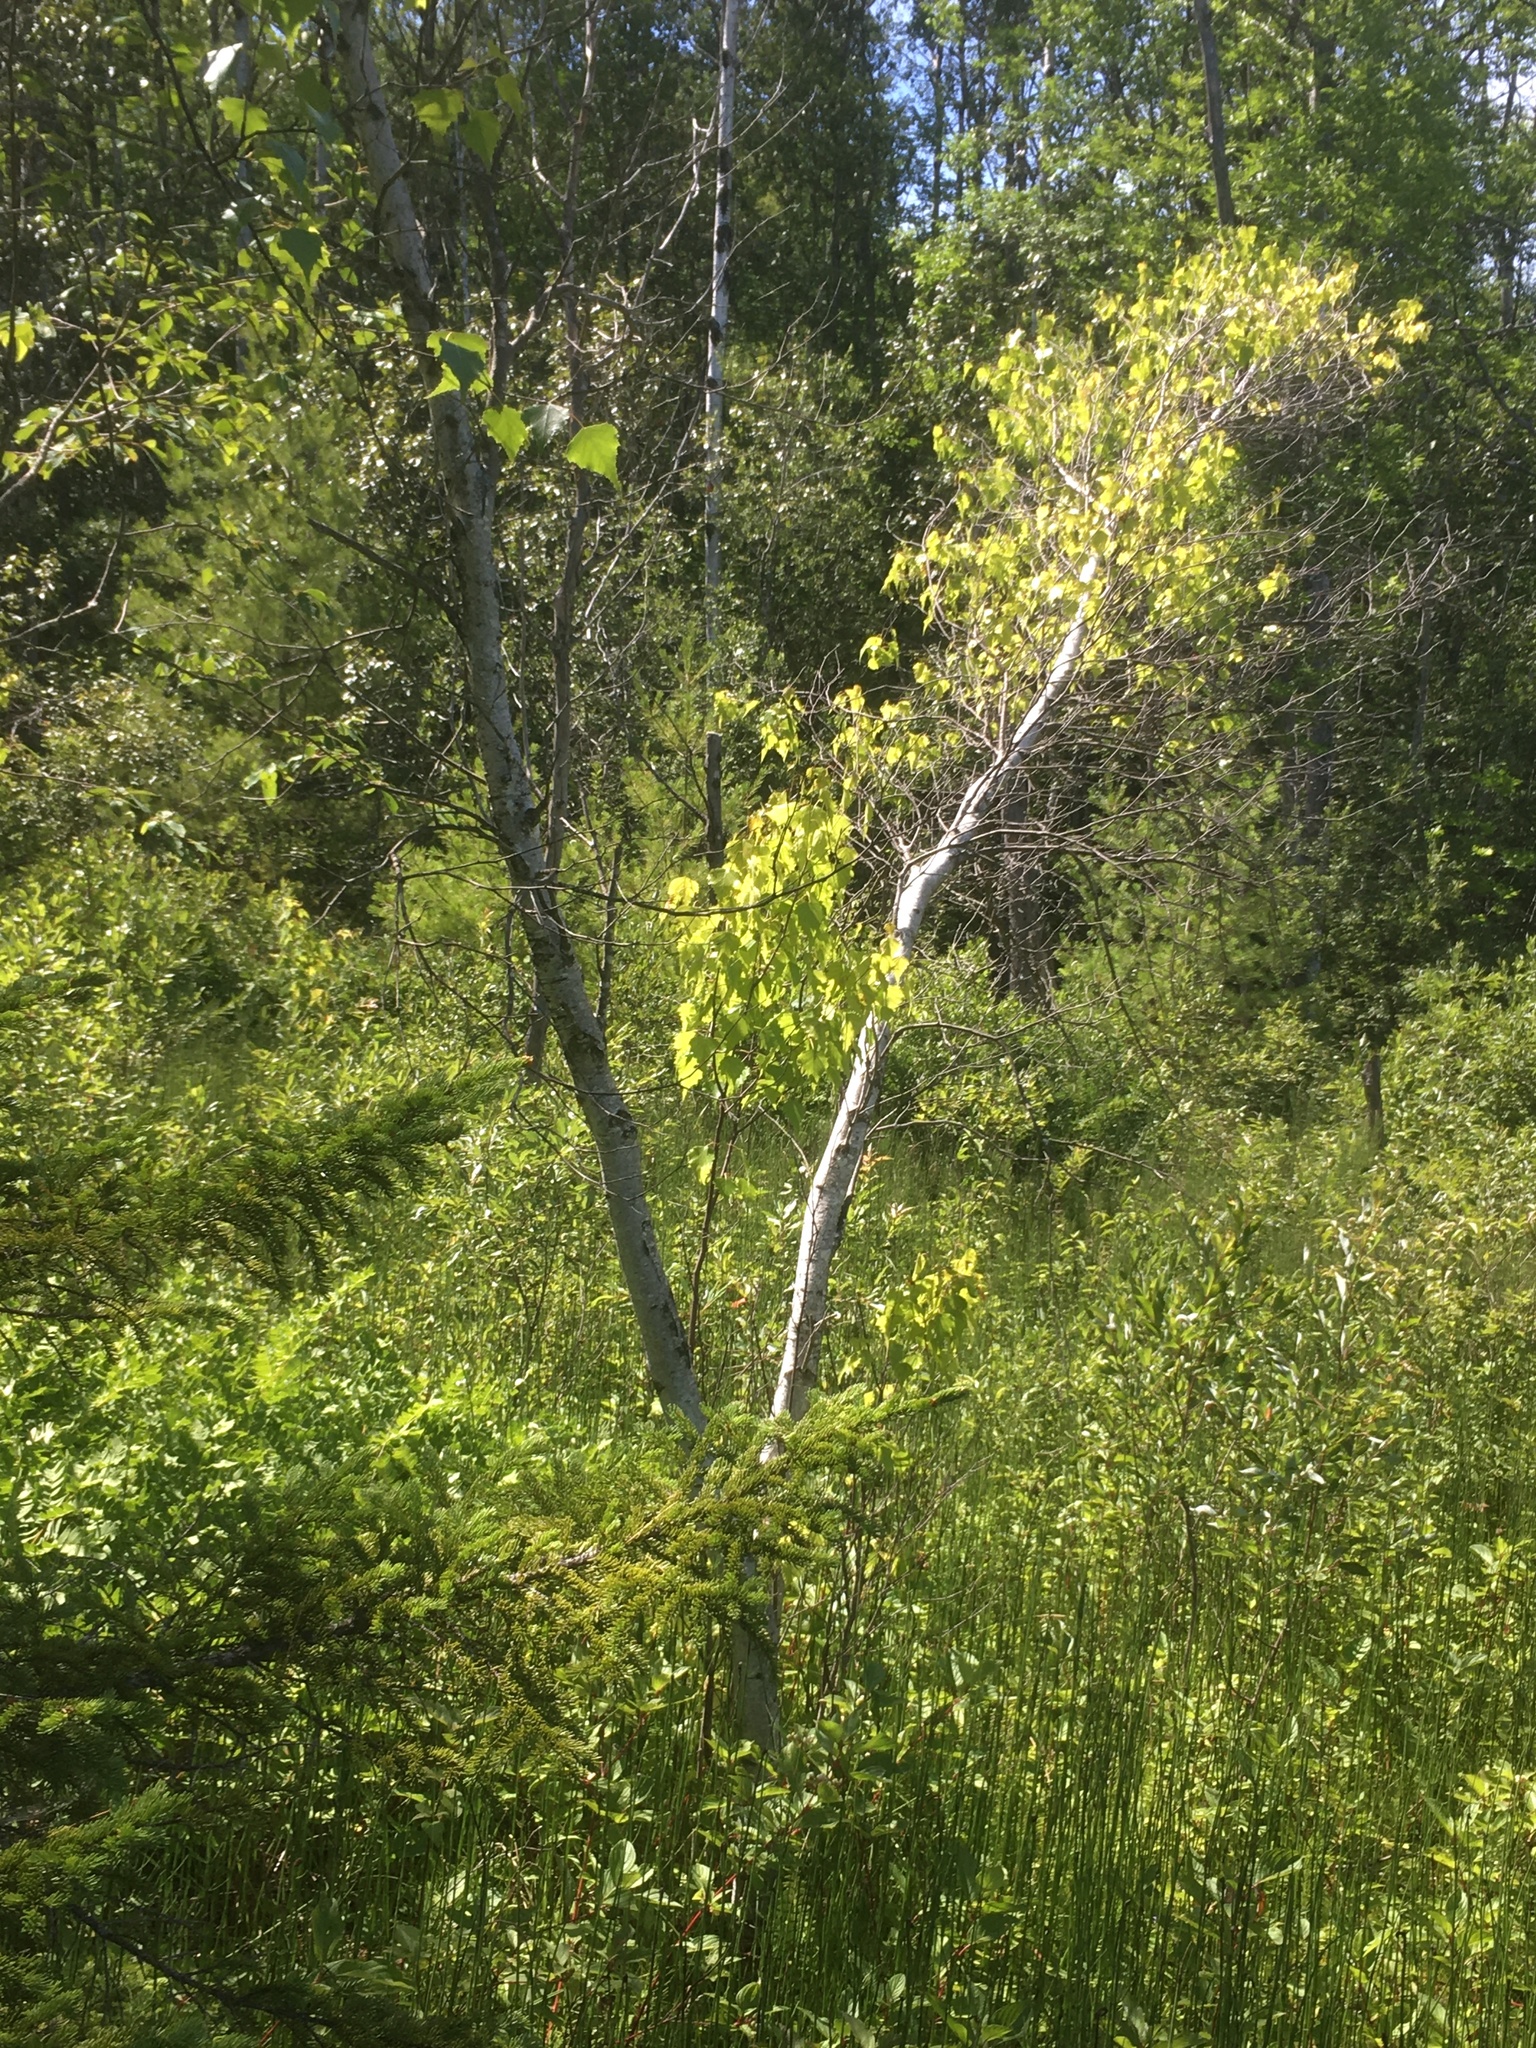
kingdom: Plantae
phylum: Tracheophyta
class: Magnoliopsida
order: Fagales
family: Betulaceae
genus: Betula
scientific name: Betula populifolia
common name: Fire birch
